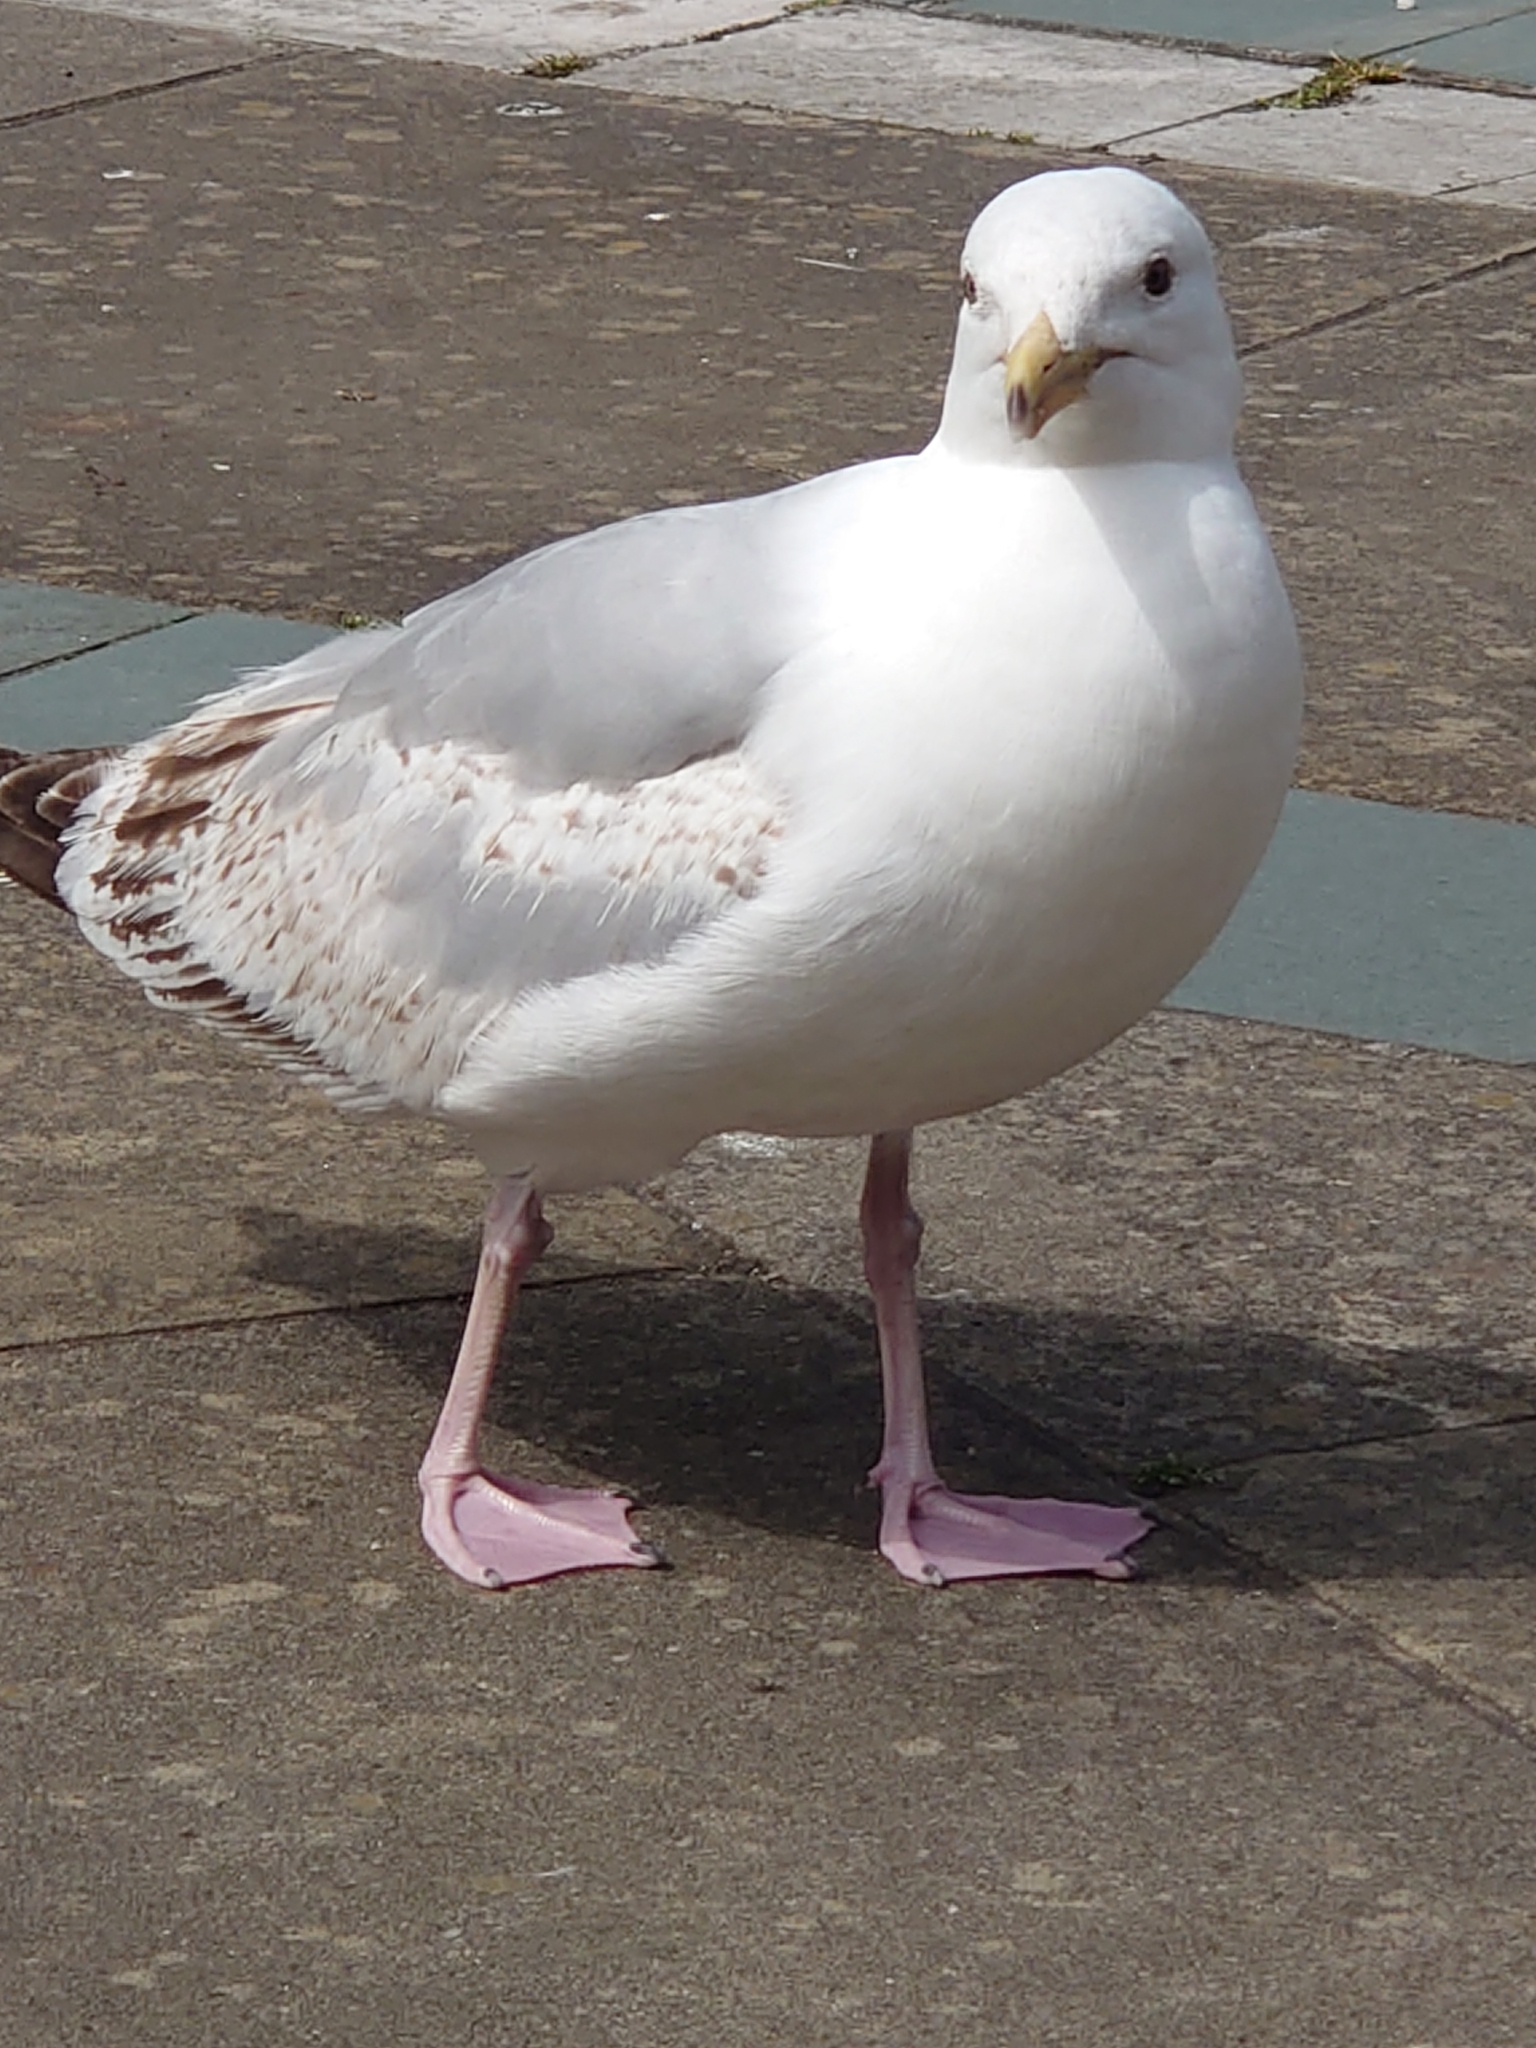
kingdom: Animalia
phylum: Chordata
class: Aves
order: Charadriiformes
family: Laridae
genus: Larus
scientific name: Larus argentatus
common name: Herring gull
